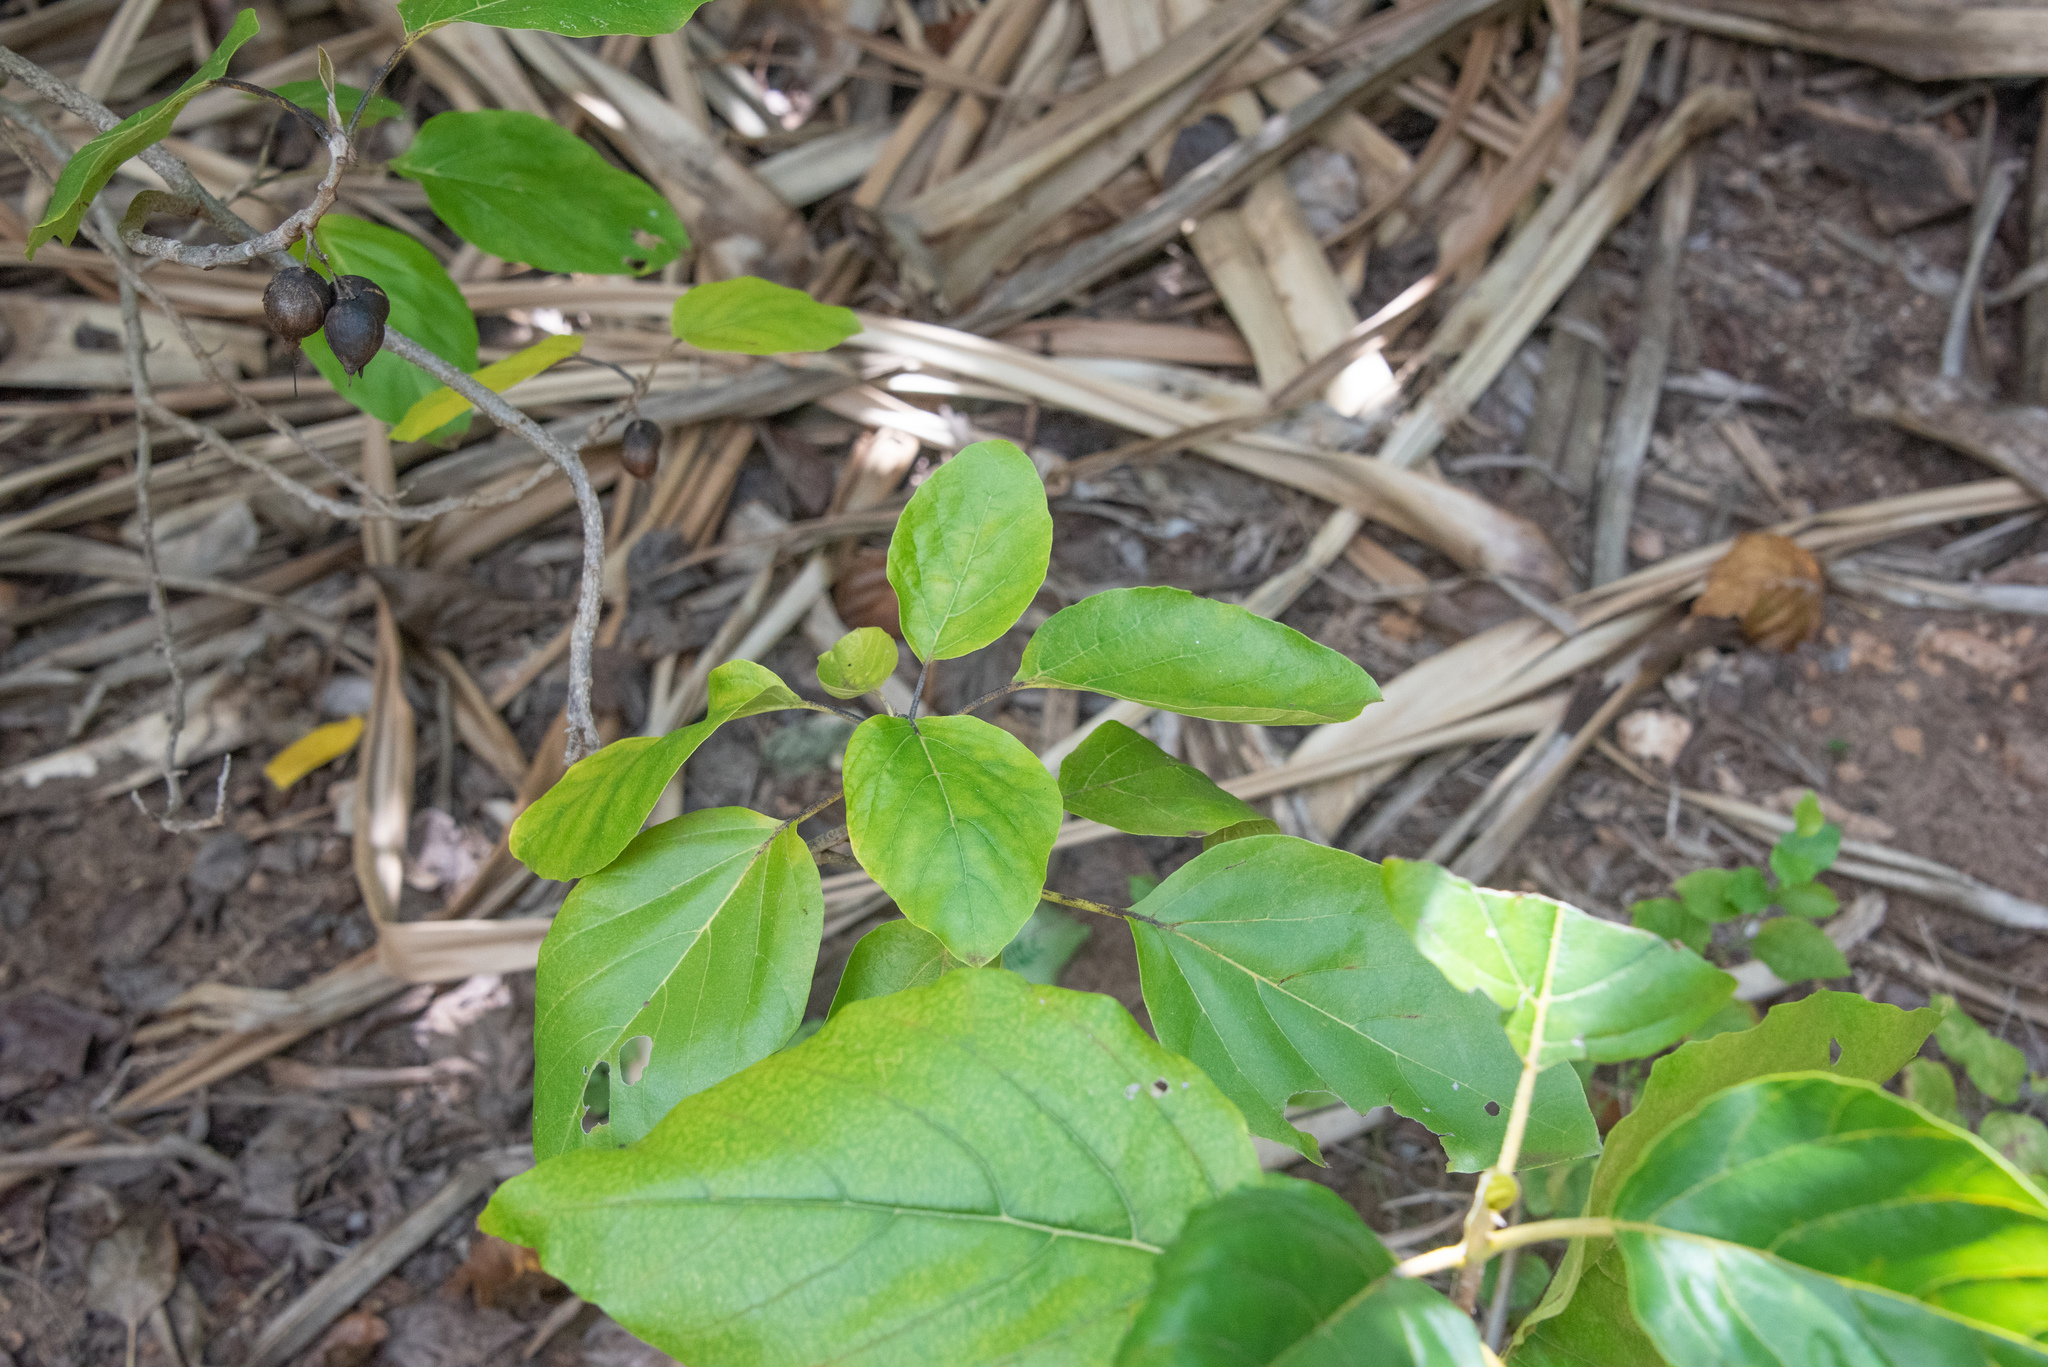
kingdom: Plantae
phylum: Tracheophyta
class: Magnoliopsida
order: Boraginales
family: Cordiaceae
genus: Cordia
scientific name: Cordia subcordata
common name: Mareer
